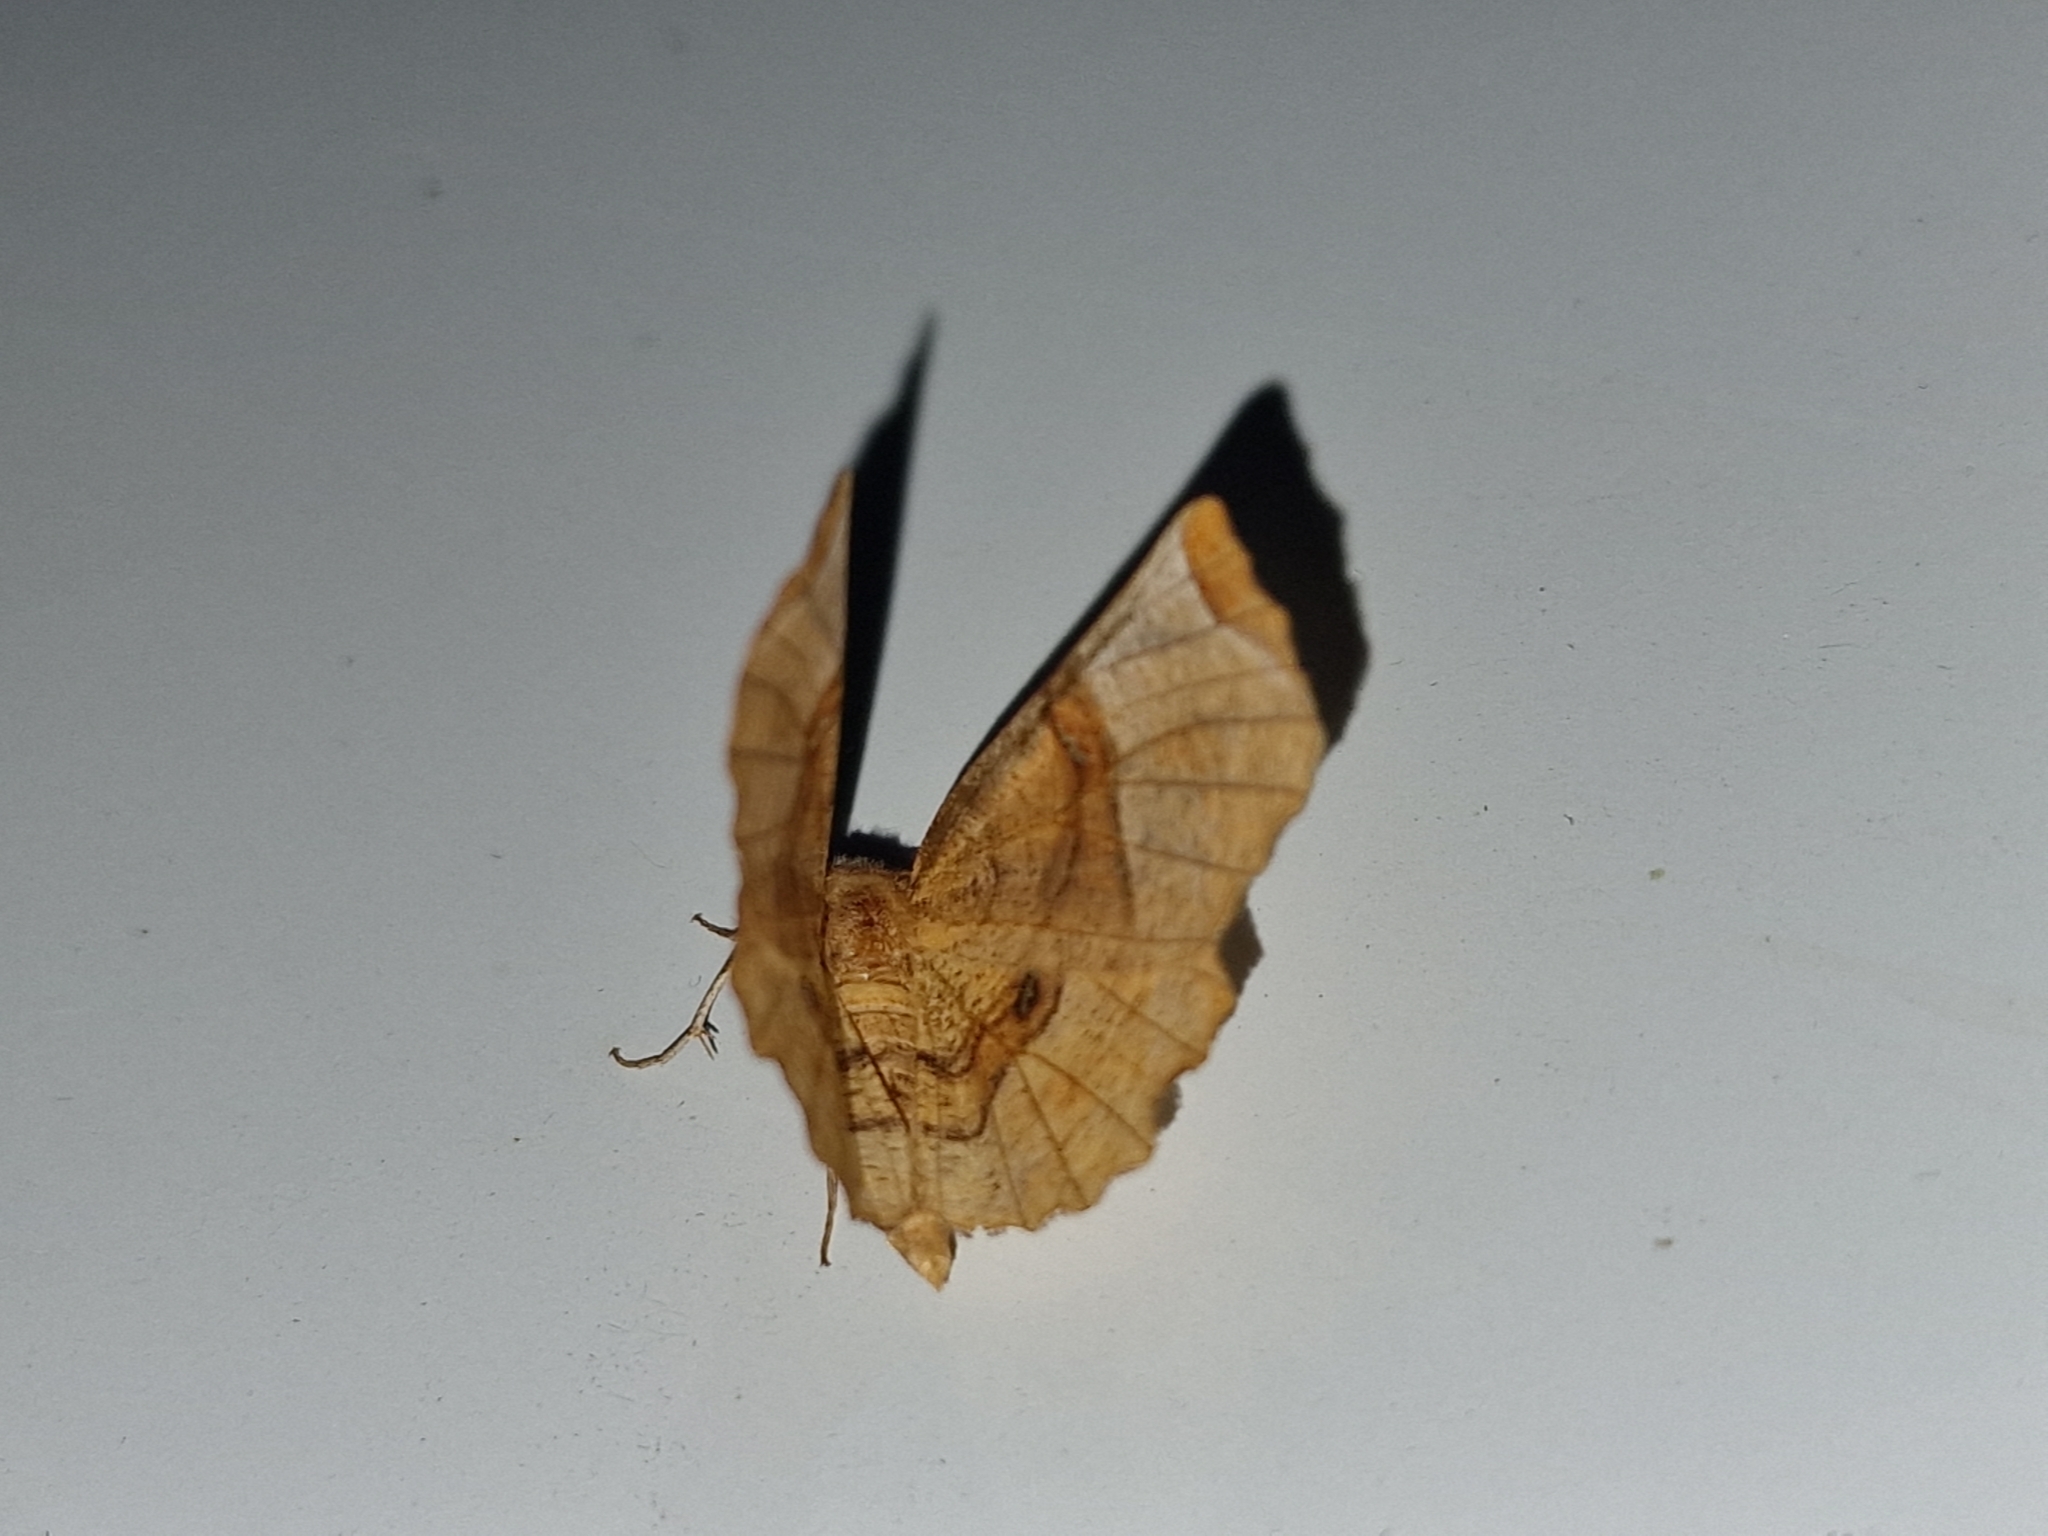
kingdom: Animalia
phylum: Arthropoda
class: Insecta
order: Lepidoptera
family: Geometridae
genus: Selenia
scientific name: Selenia lunularia
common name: Lunar thorn
